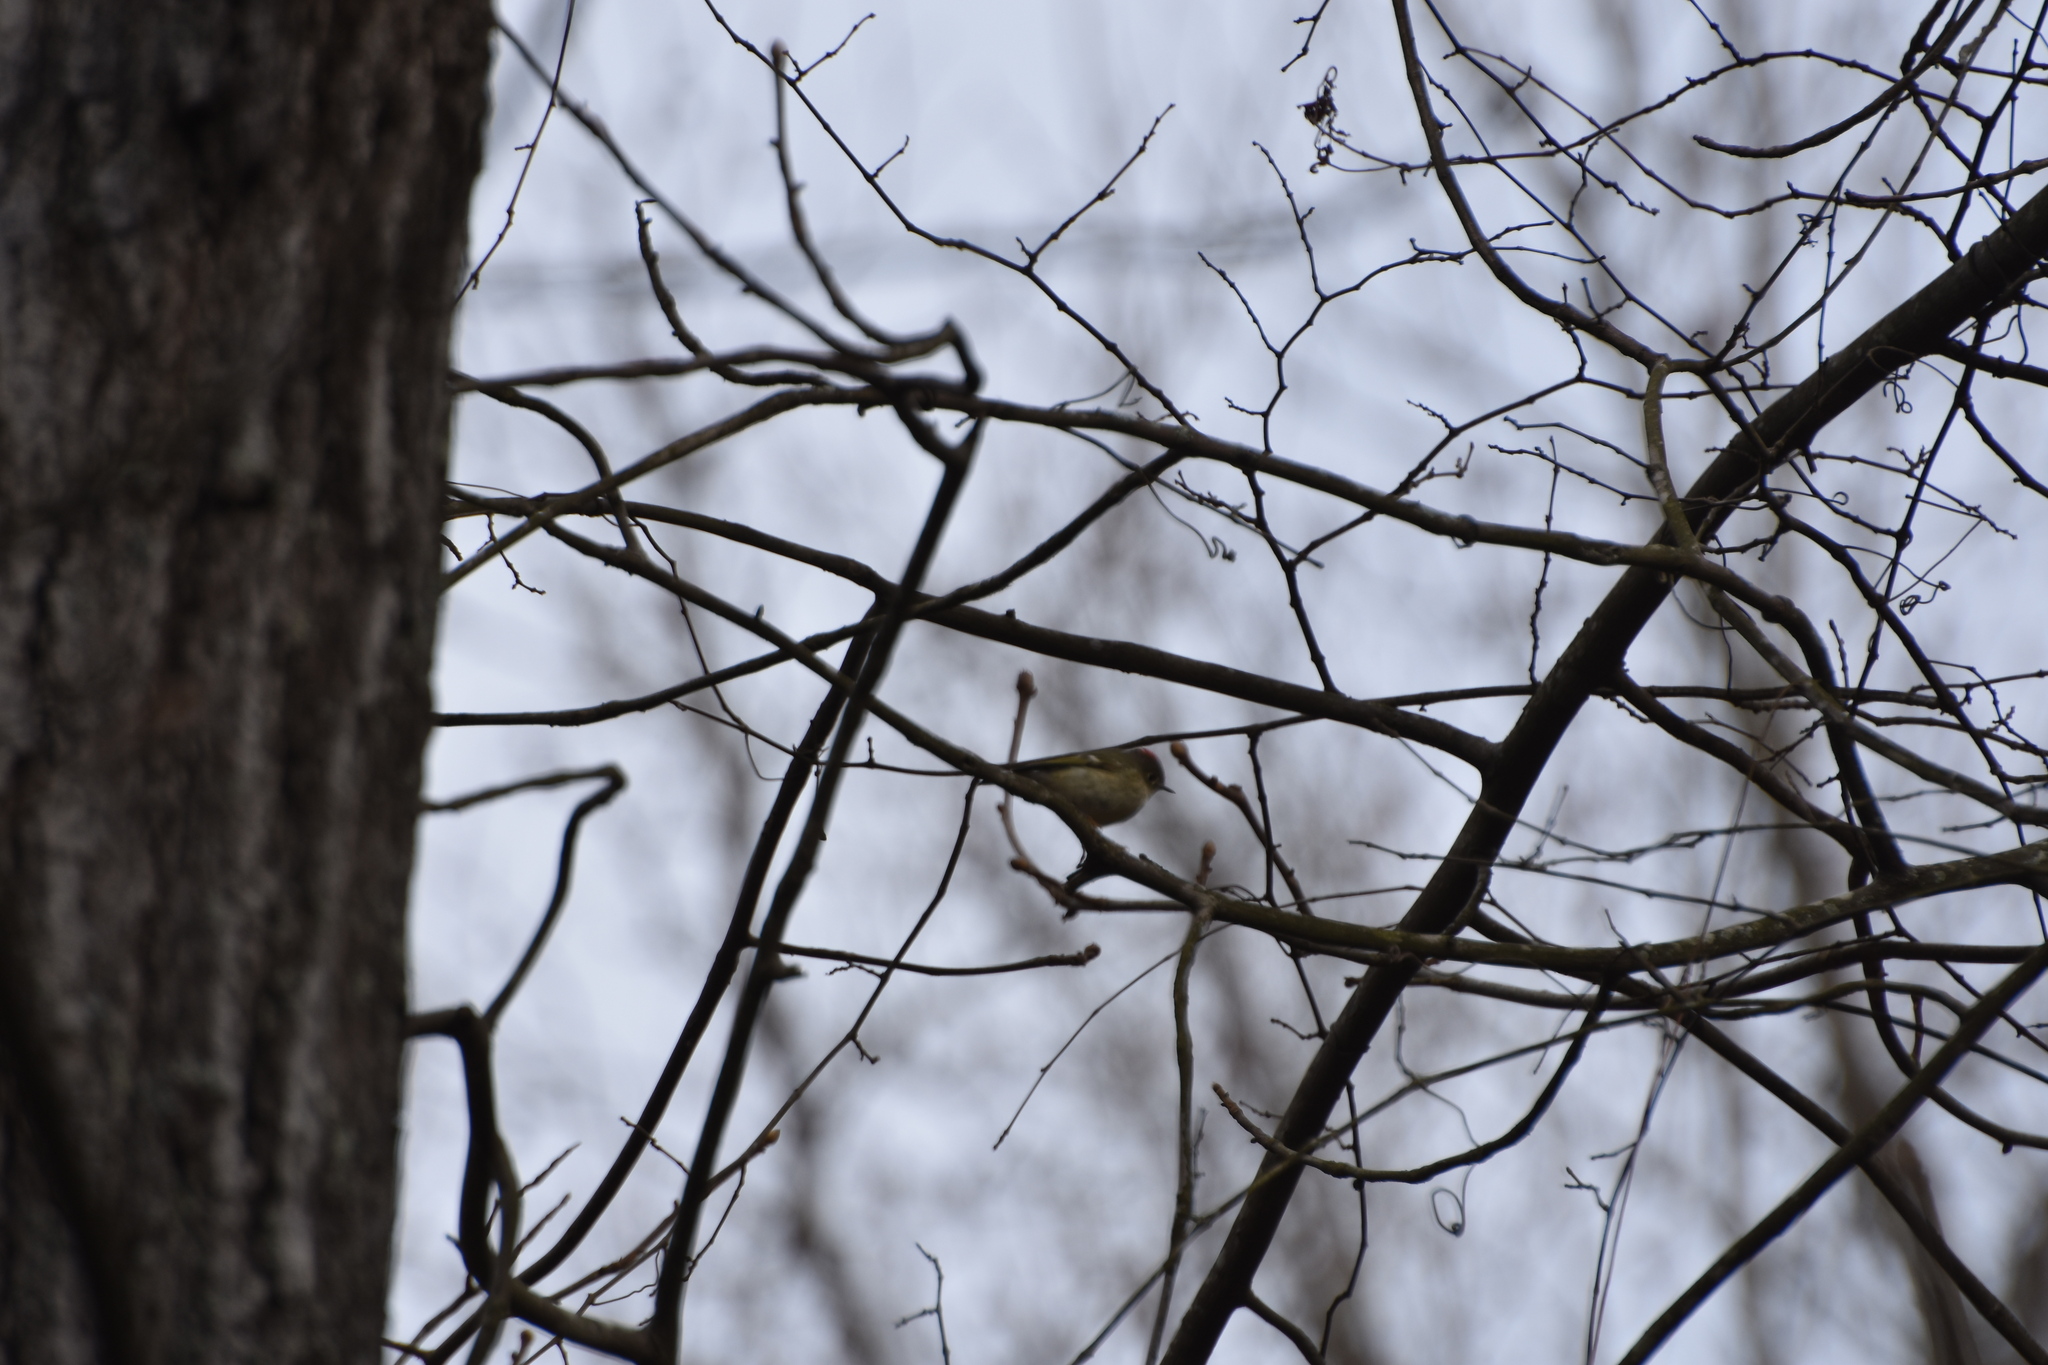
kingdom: Animalia
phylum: Chordata
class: Aves
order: Passeriformes
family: Regulidae
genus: Regulus
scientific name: Regulus calendula
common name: Ruby-crowned kinglet
